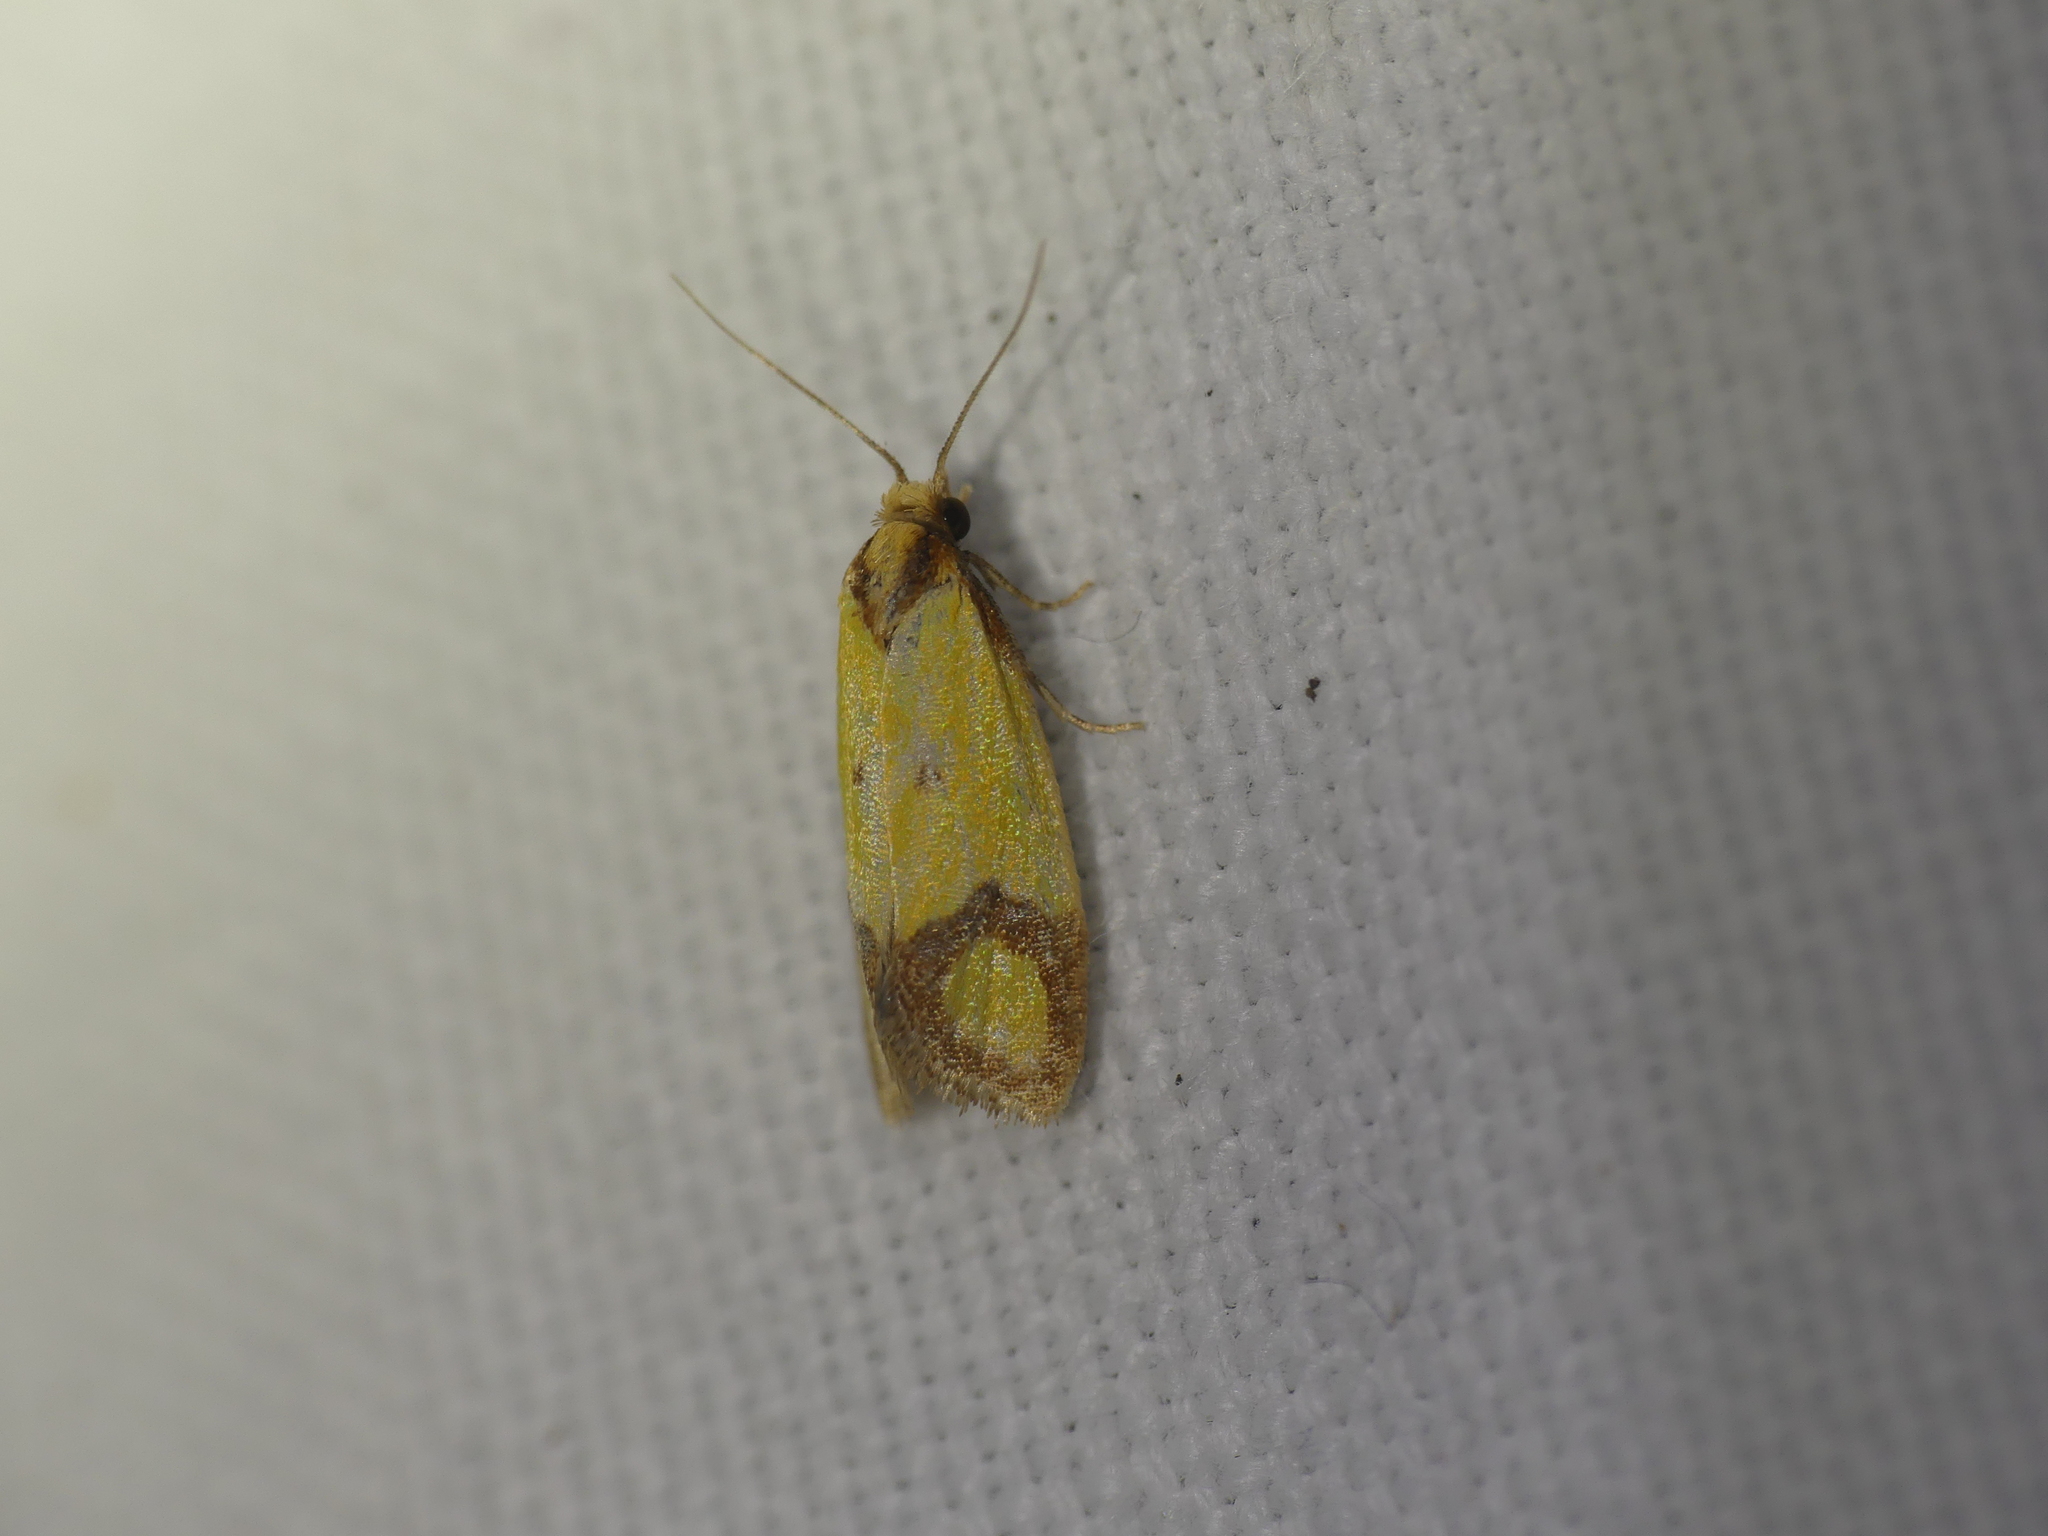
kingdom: Animalia
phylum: Arthropoda
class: Insecta
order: Lepidoptera
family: Tortricidae
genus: Agapeta
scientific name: Agapeta zoegana
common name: Sulfur knapweed root moth
